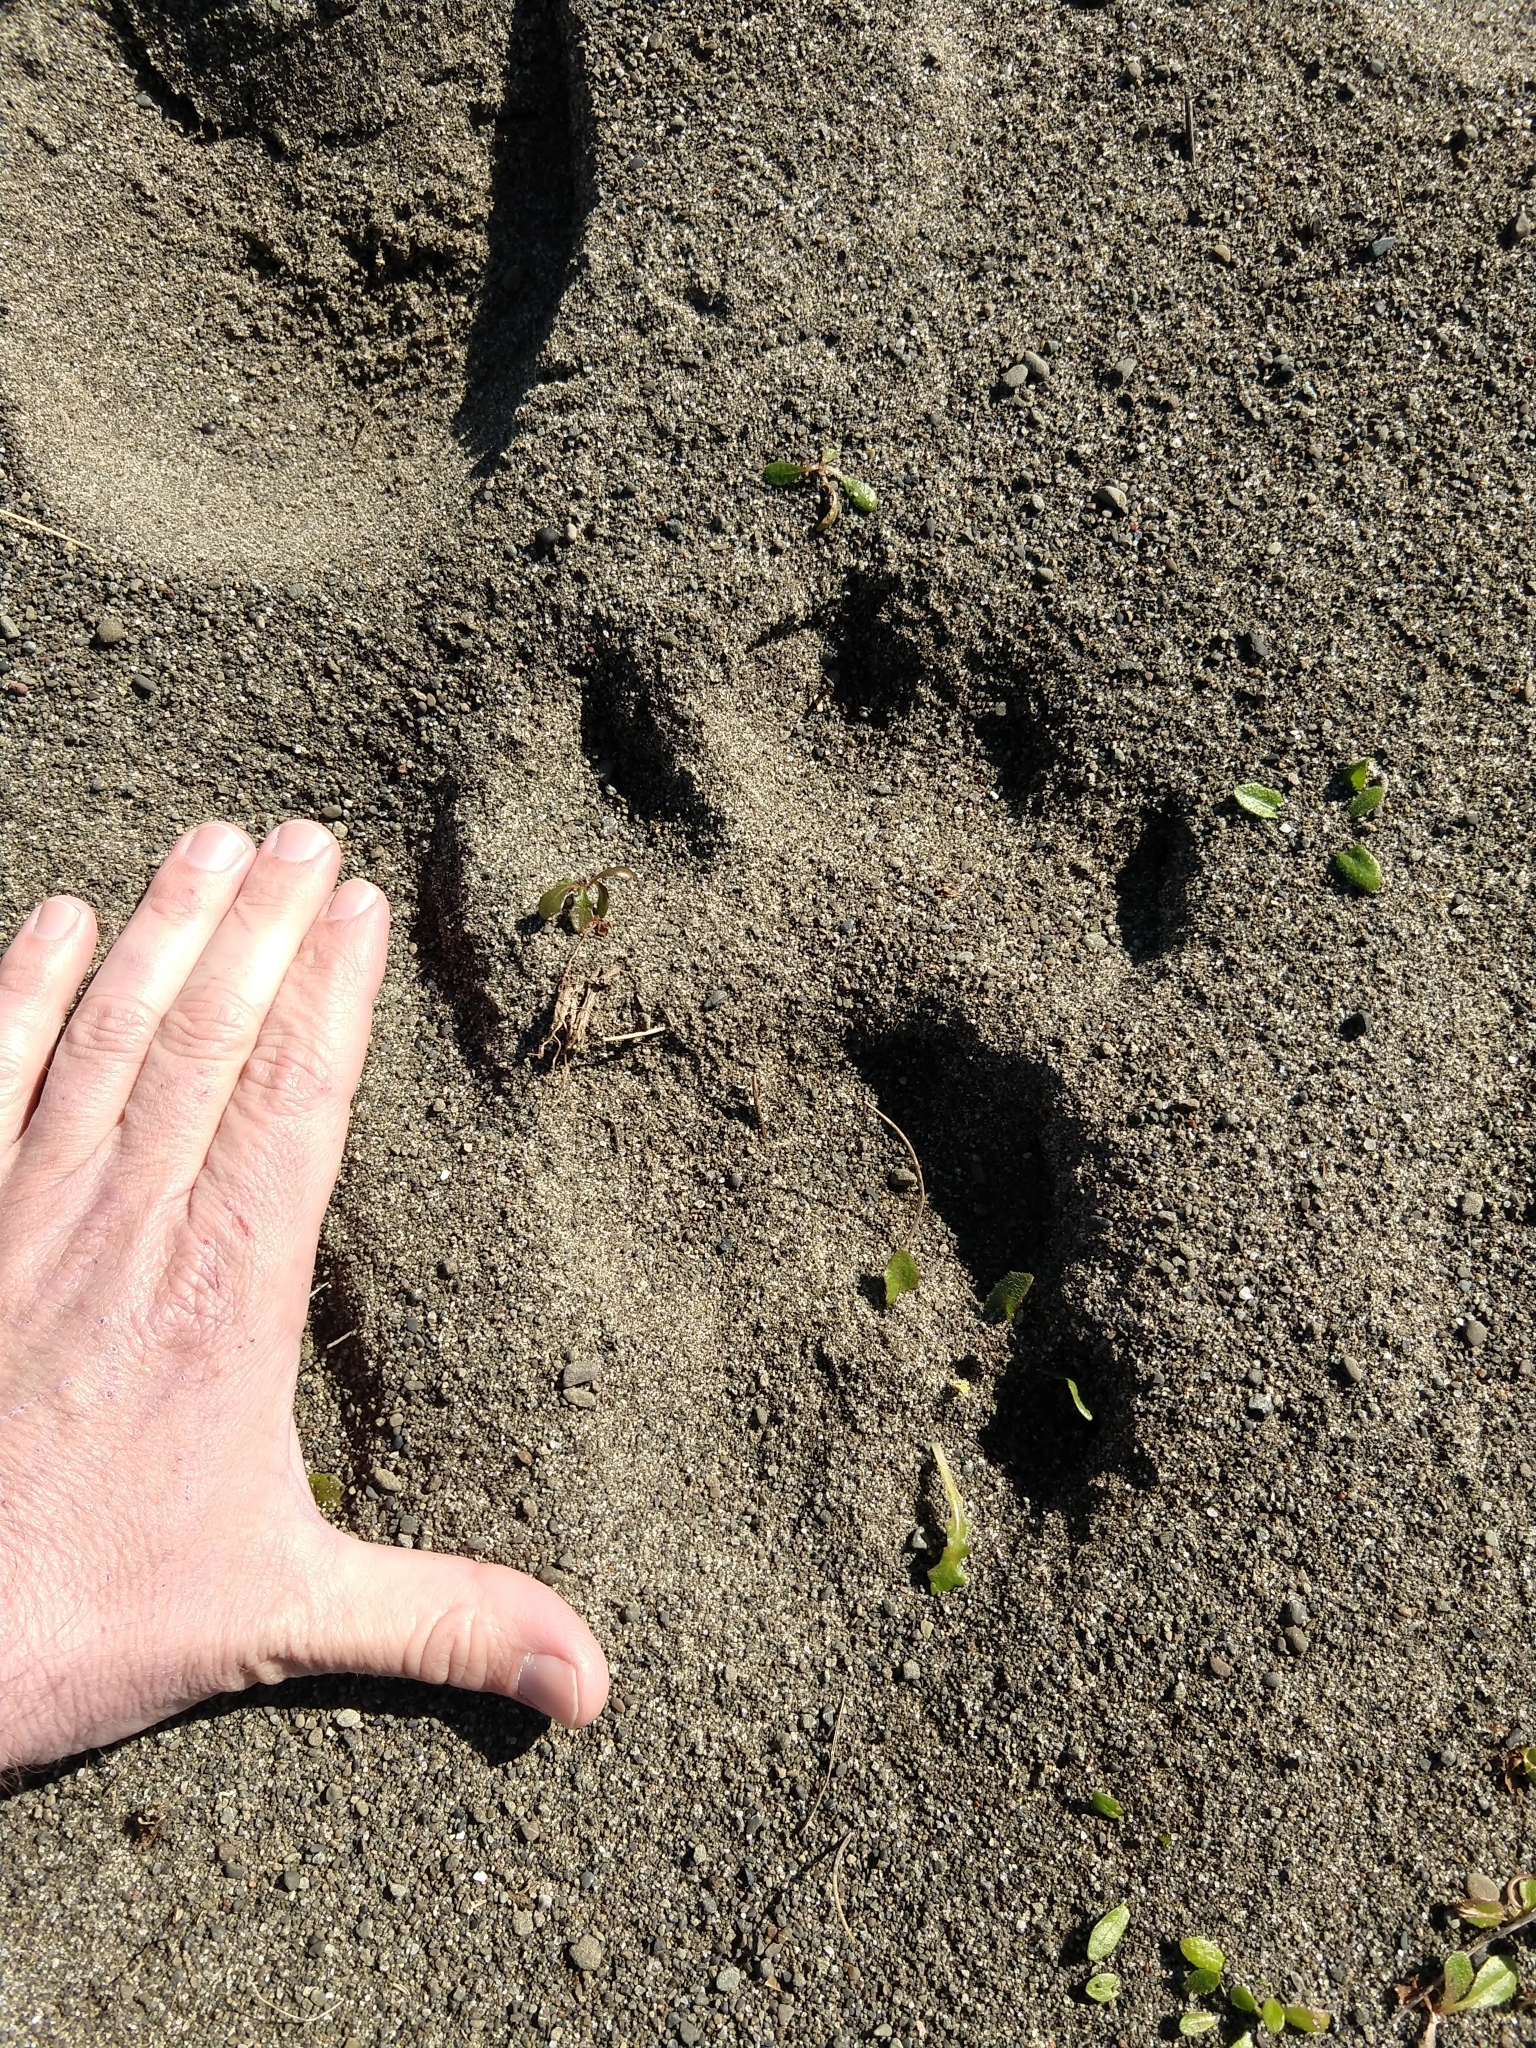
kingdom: Animalia
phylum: Chordata
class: Mammalia
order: Carnivora
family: Ursidae
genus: Ursus
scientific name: Ursus americanus
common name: American black bear
